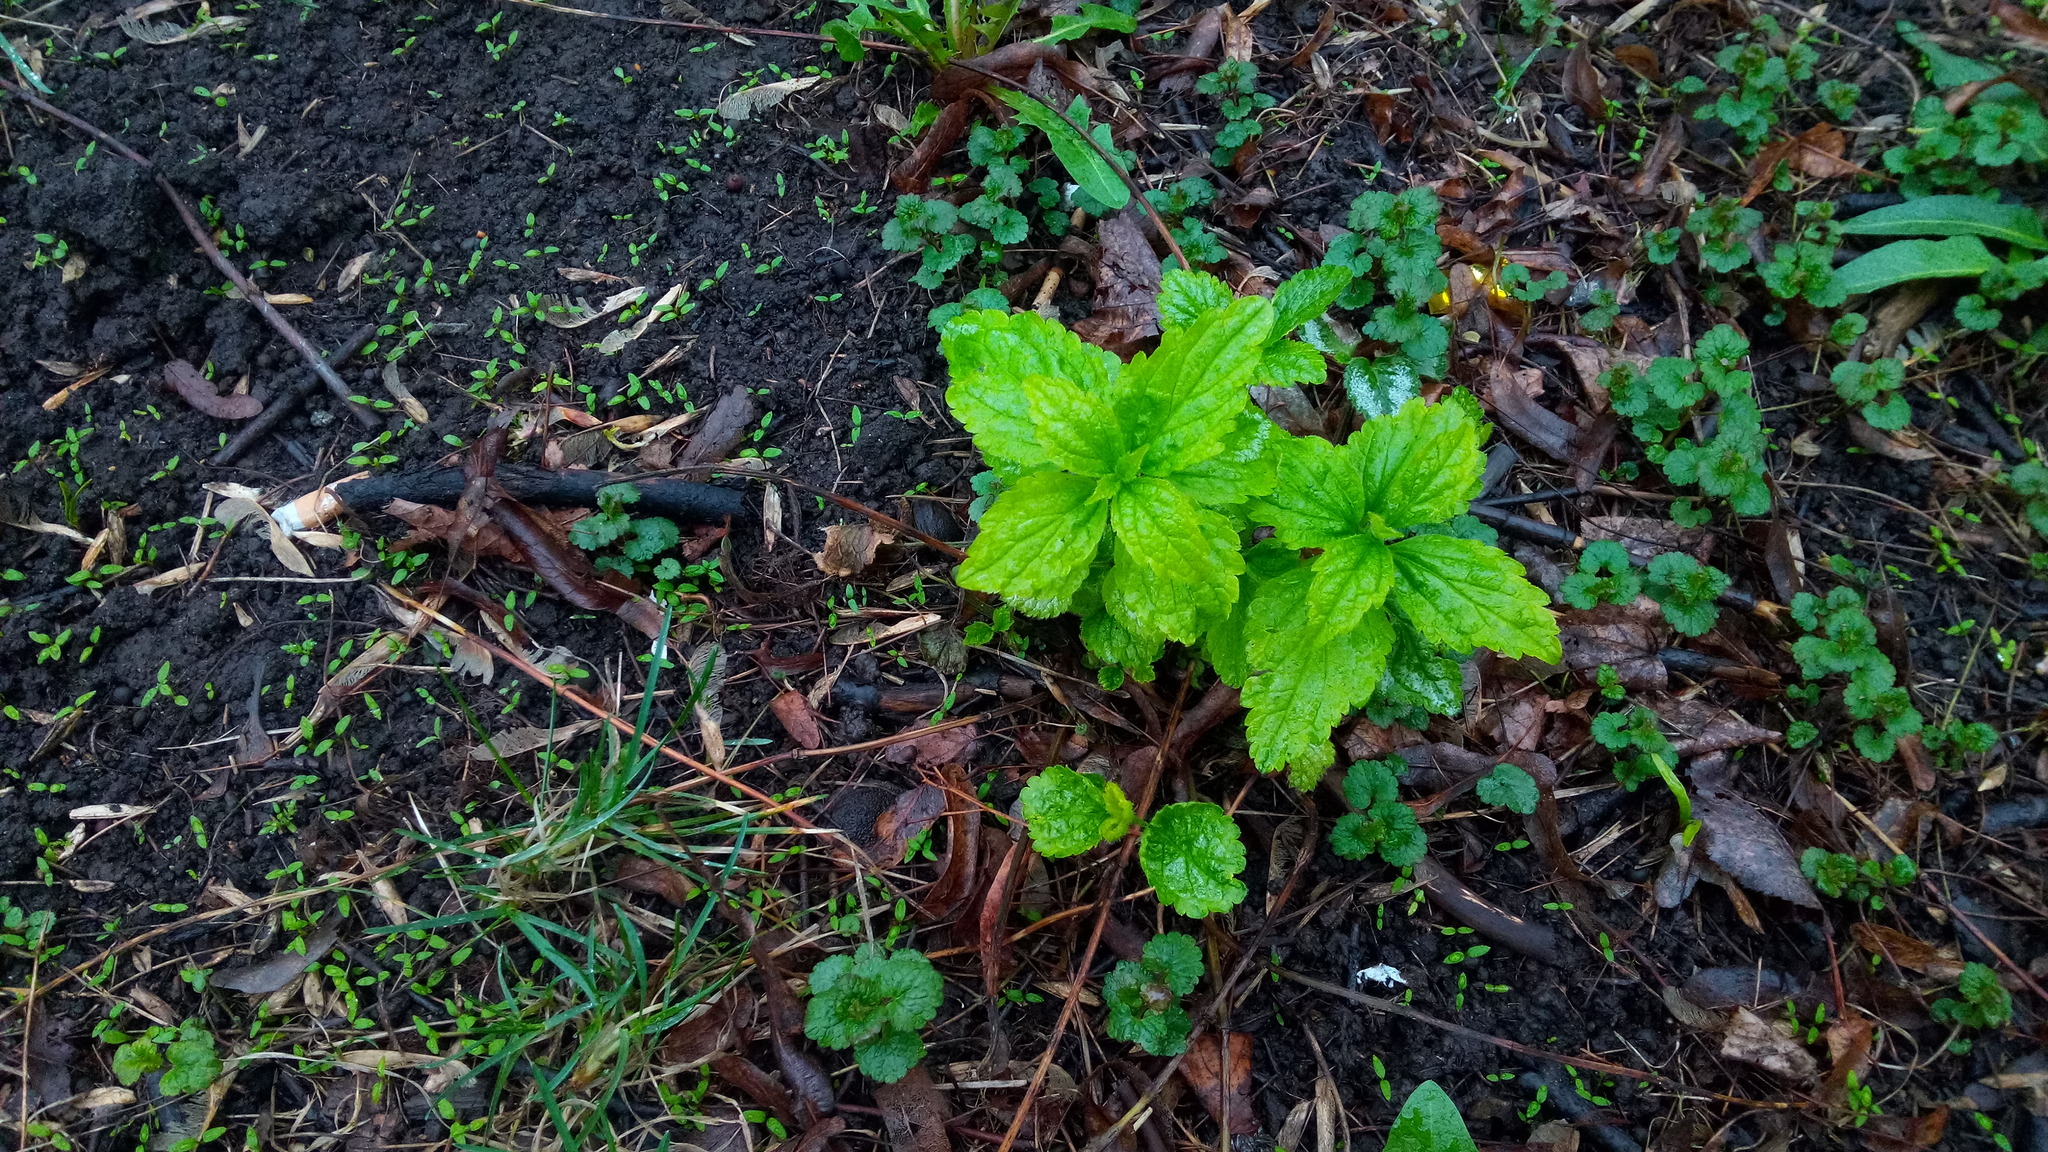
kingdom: Plantae
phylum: Tracheophyta
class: Magnoliopsida
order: Lamiales
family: Lamiaceae
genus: Lamium
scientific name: Lamium galeobdolon
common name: Yellow archangel
